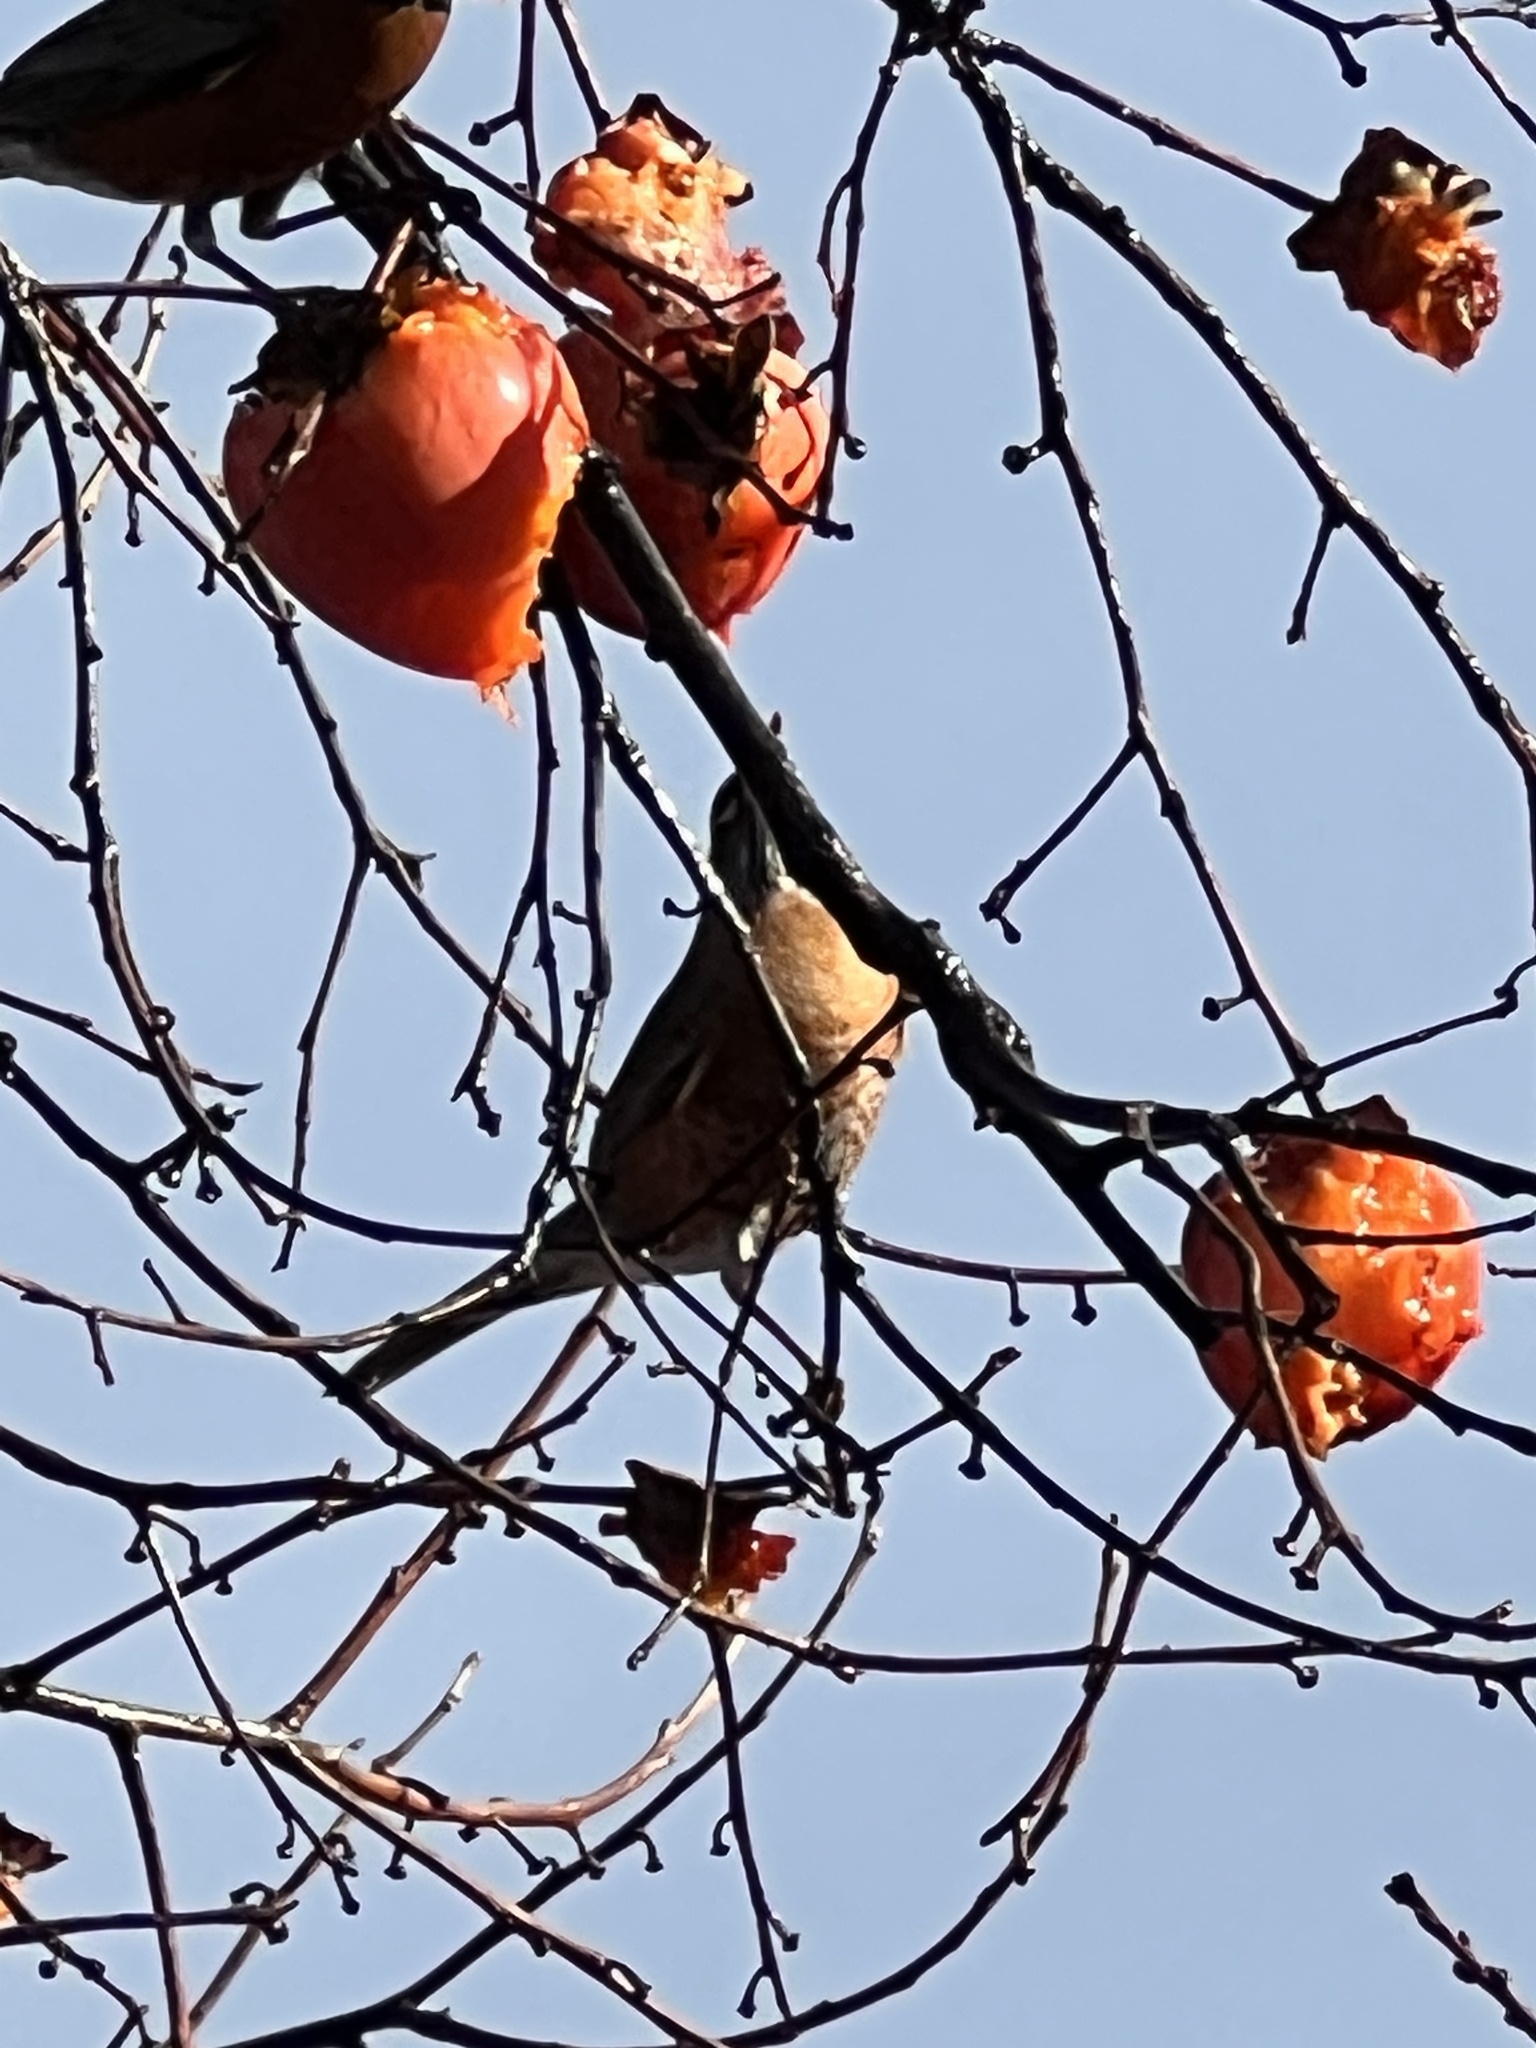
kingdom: Animalia
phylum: Chordata
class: Aves
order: Passeriformes
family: Turdidae
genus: Turdus
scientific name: Turdus migratorius
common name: American robin
